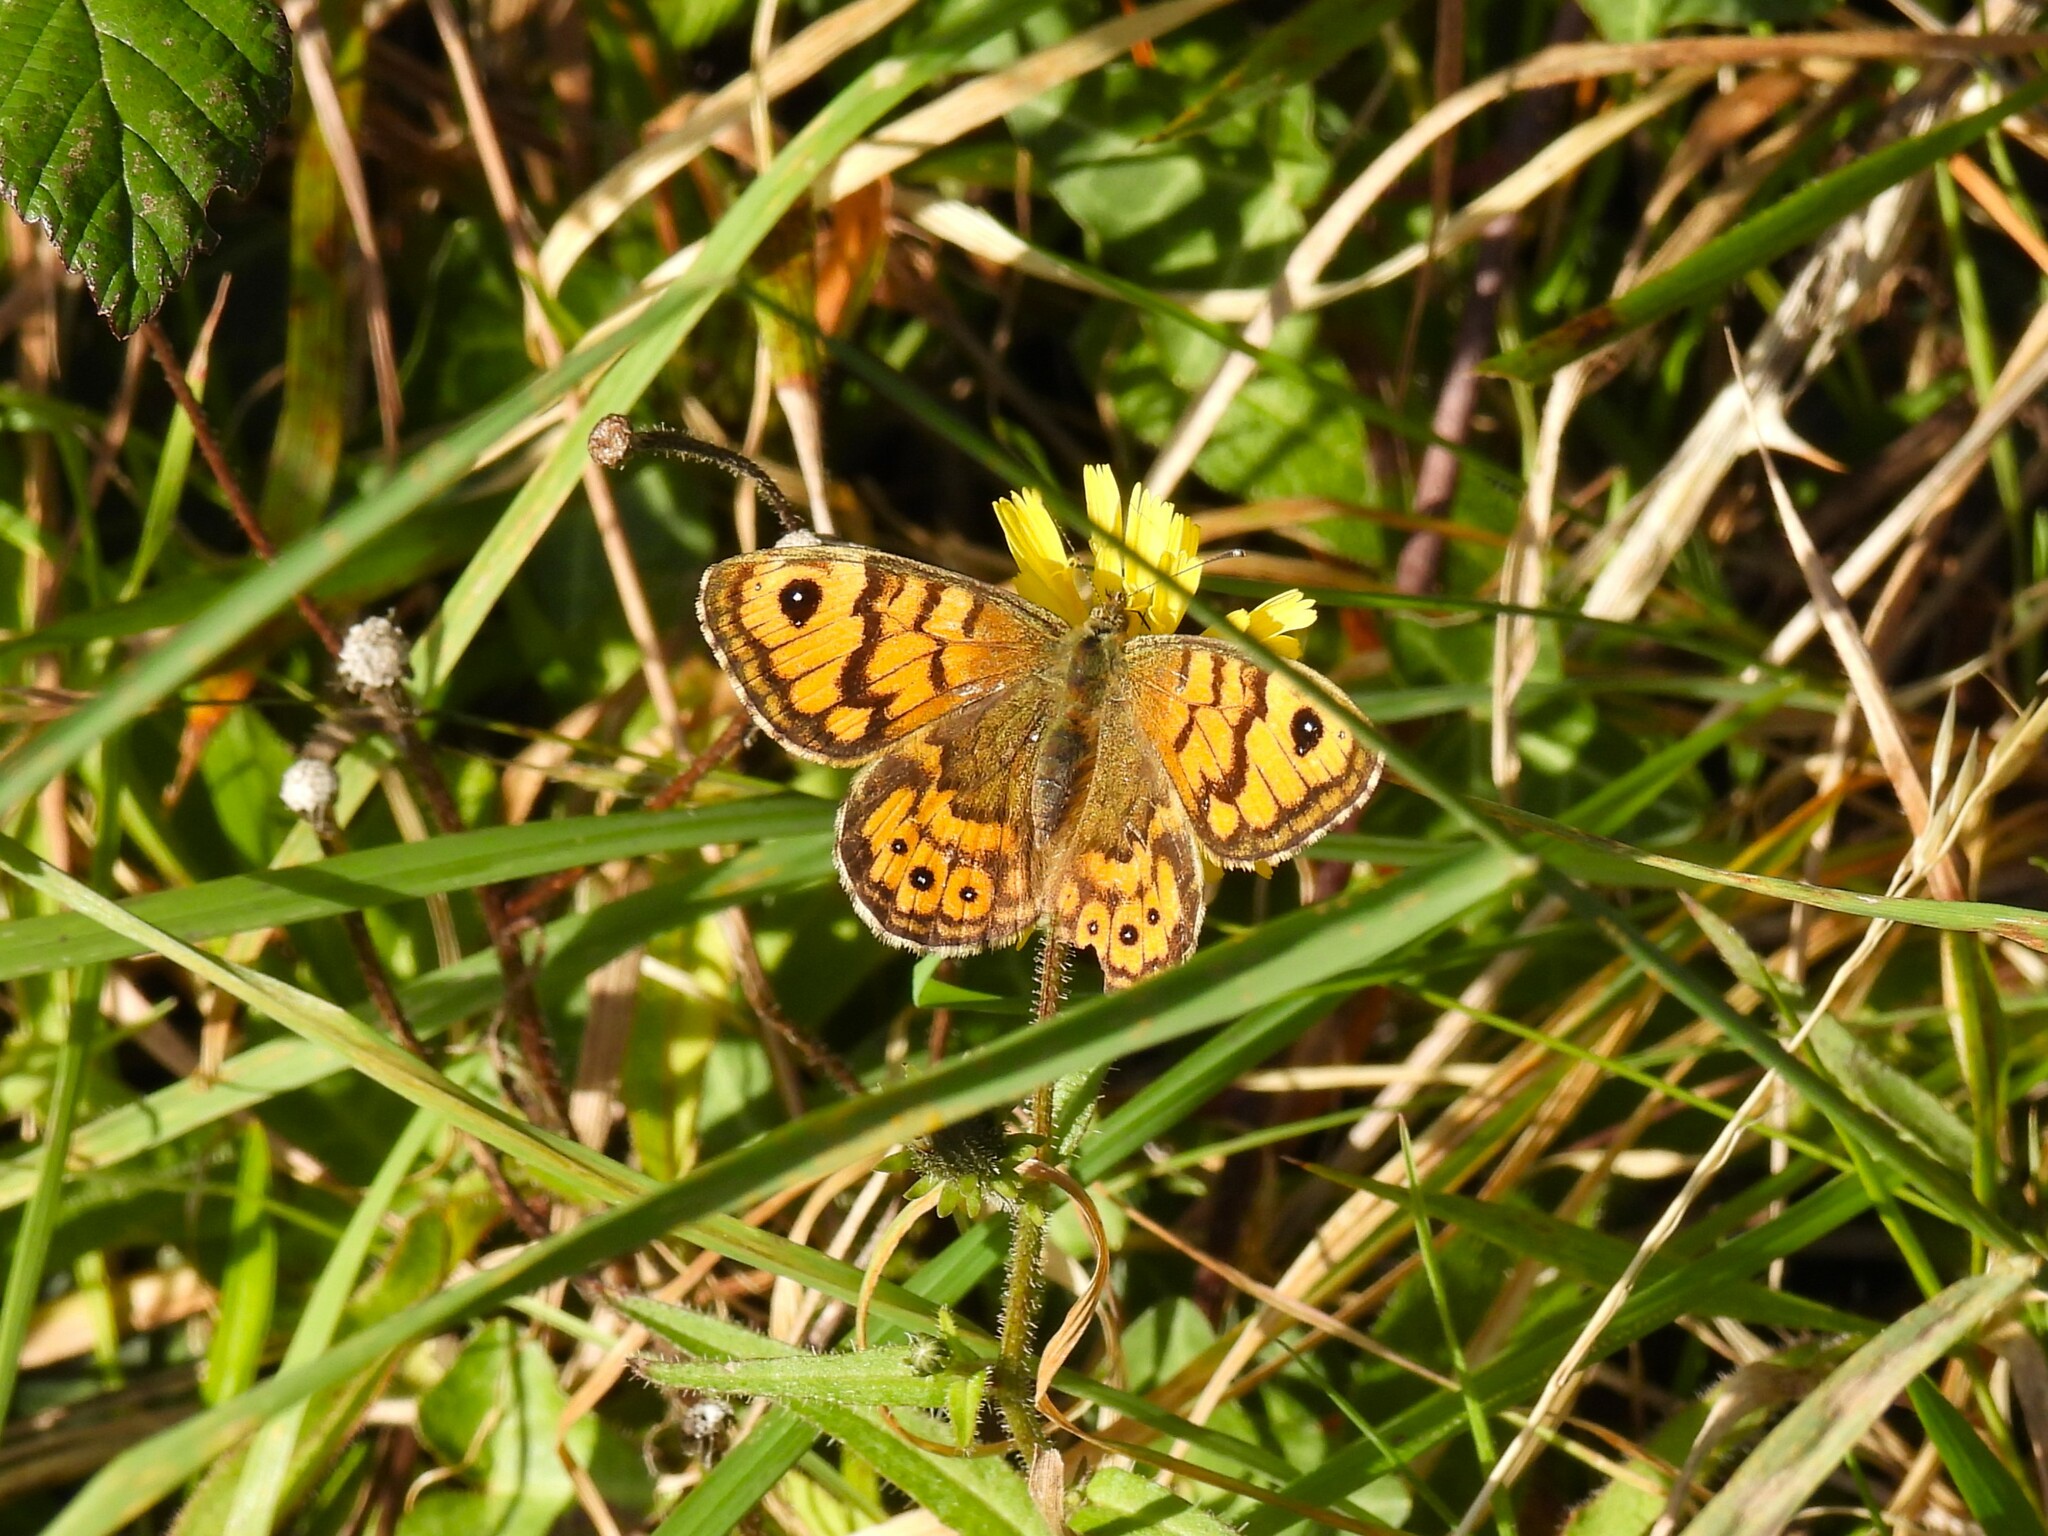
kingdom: Animalia
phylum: Arthropoda
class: Insecta
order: Lepidoptera
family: Nymphalidae
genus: Pararge
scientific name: Pararge Lasiommata megera
